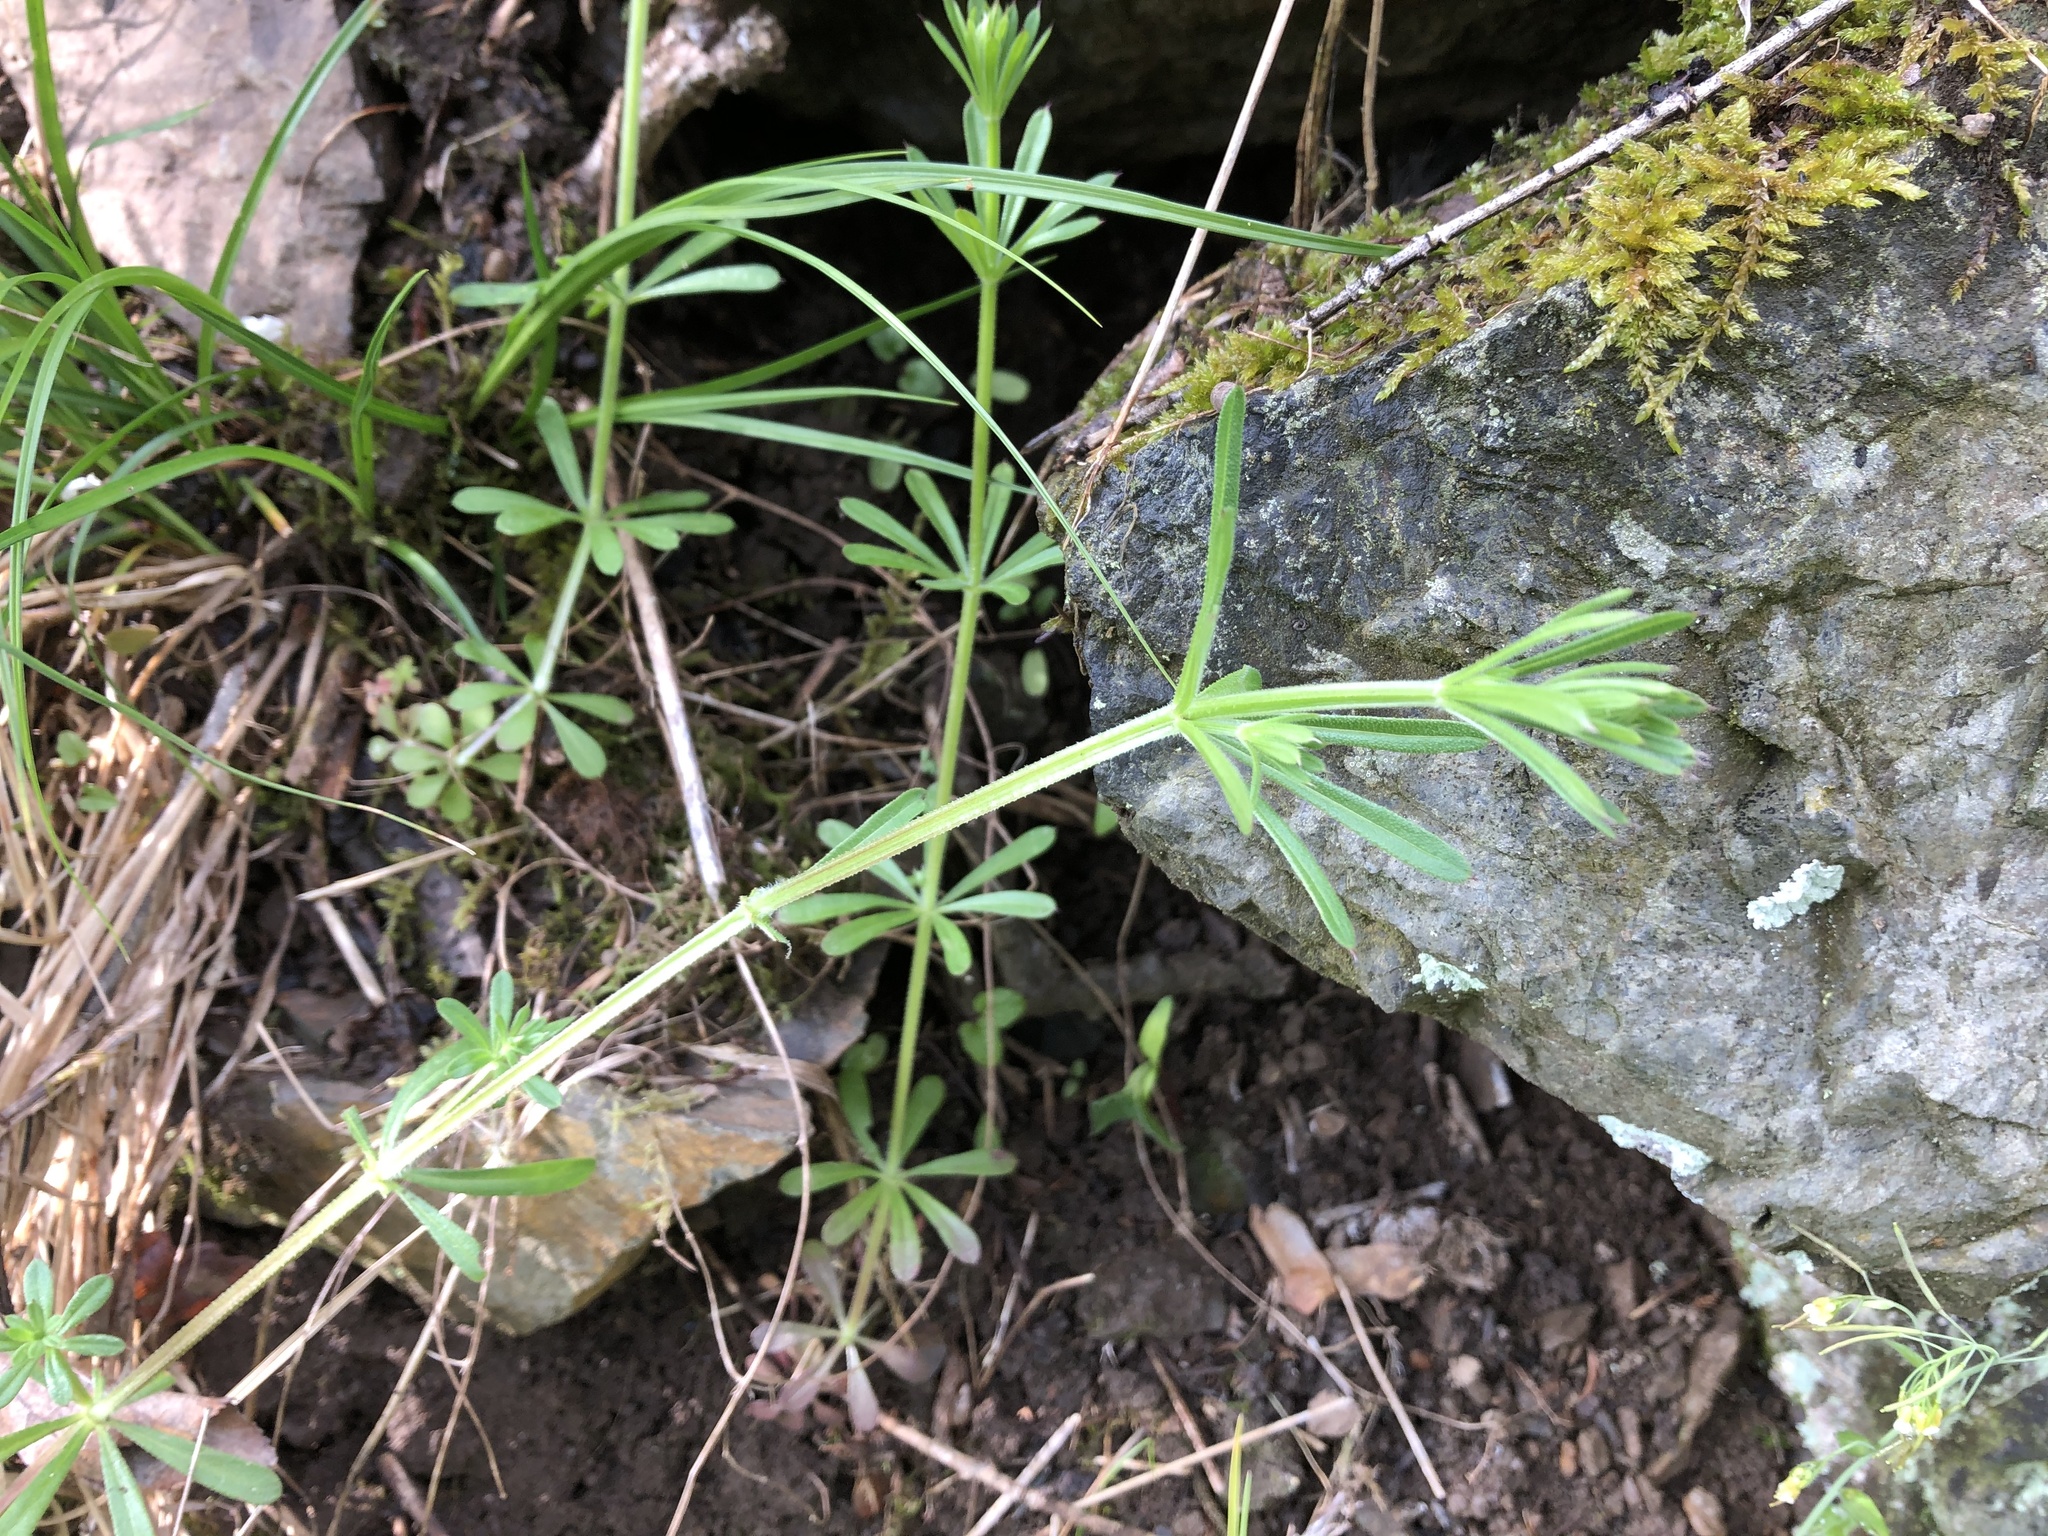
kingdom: Plantae
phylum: Tracheophyta
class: Magnoliopsida
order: Gentianales
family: Rubiaceae
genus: Galium
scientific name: Galium aparine
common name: Cleavers
